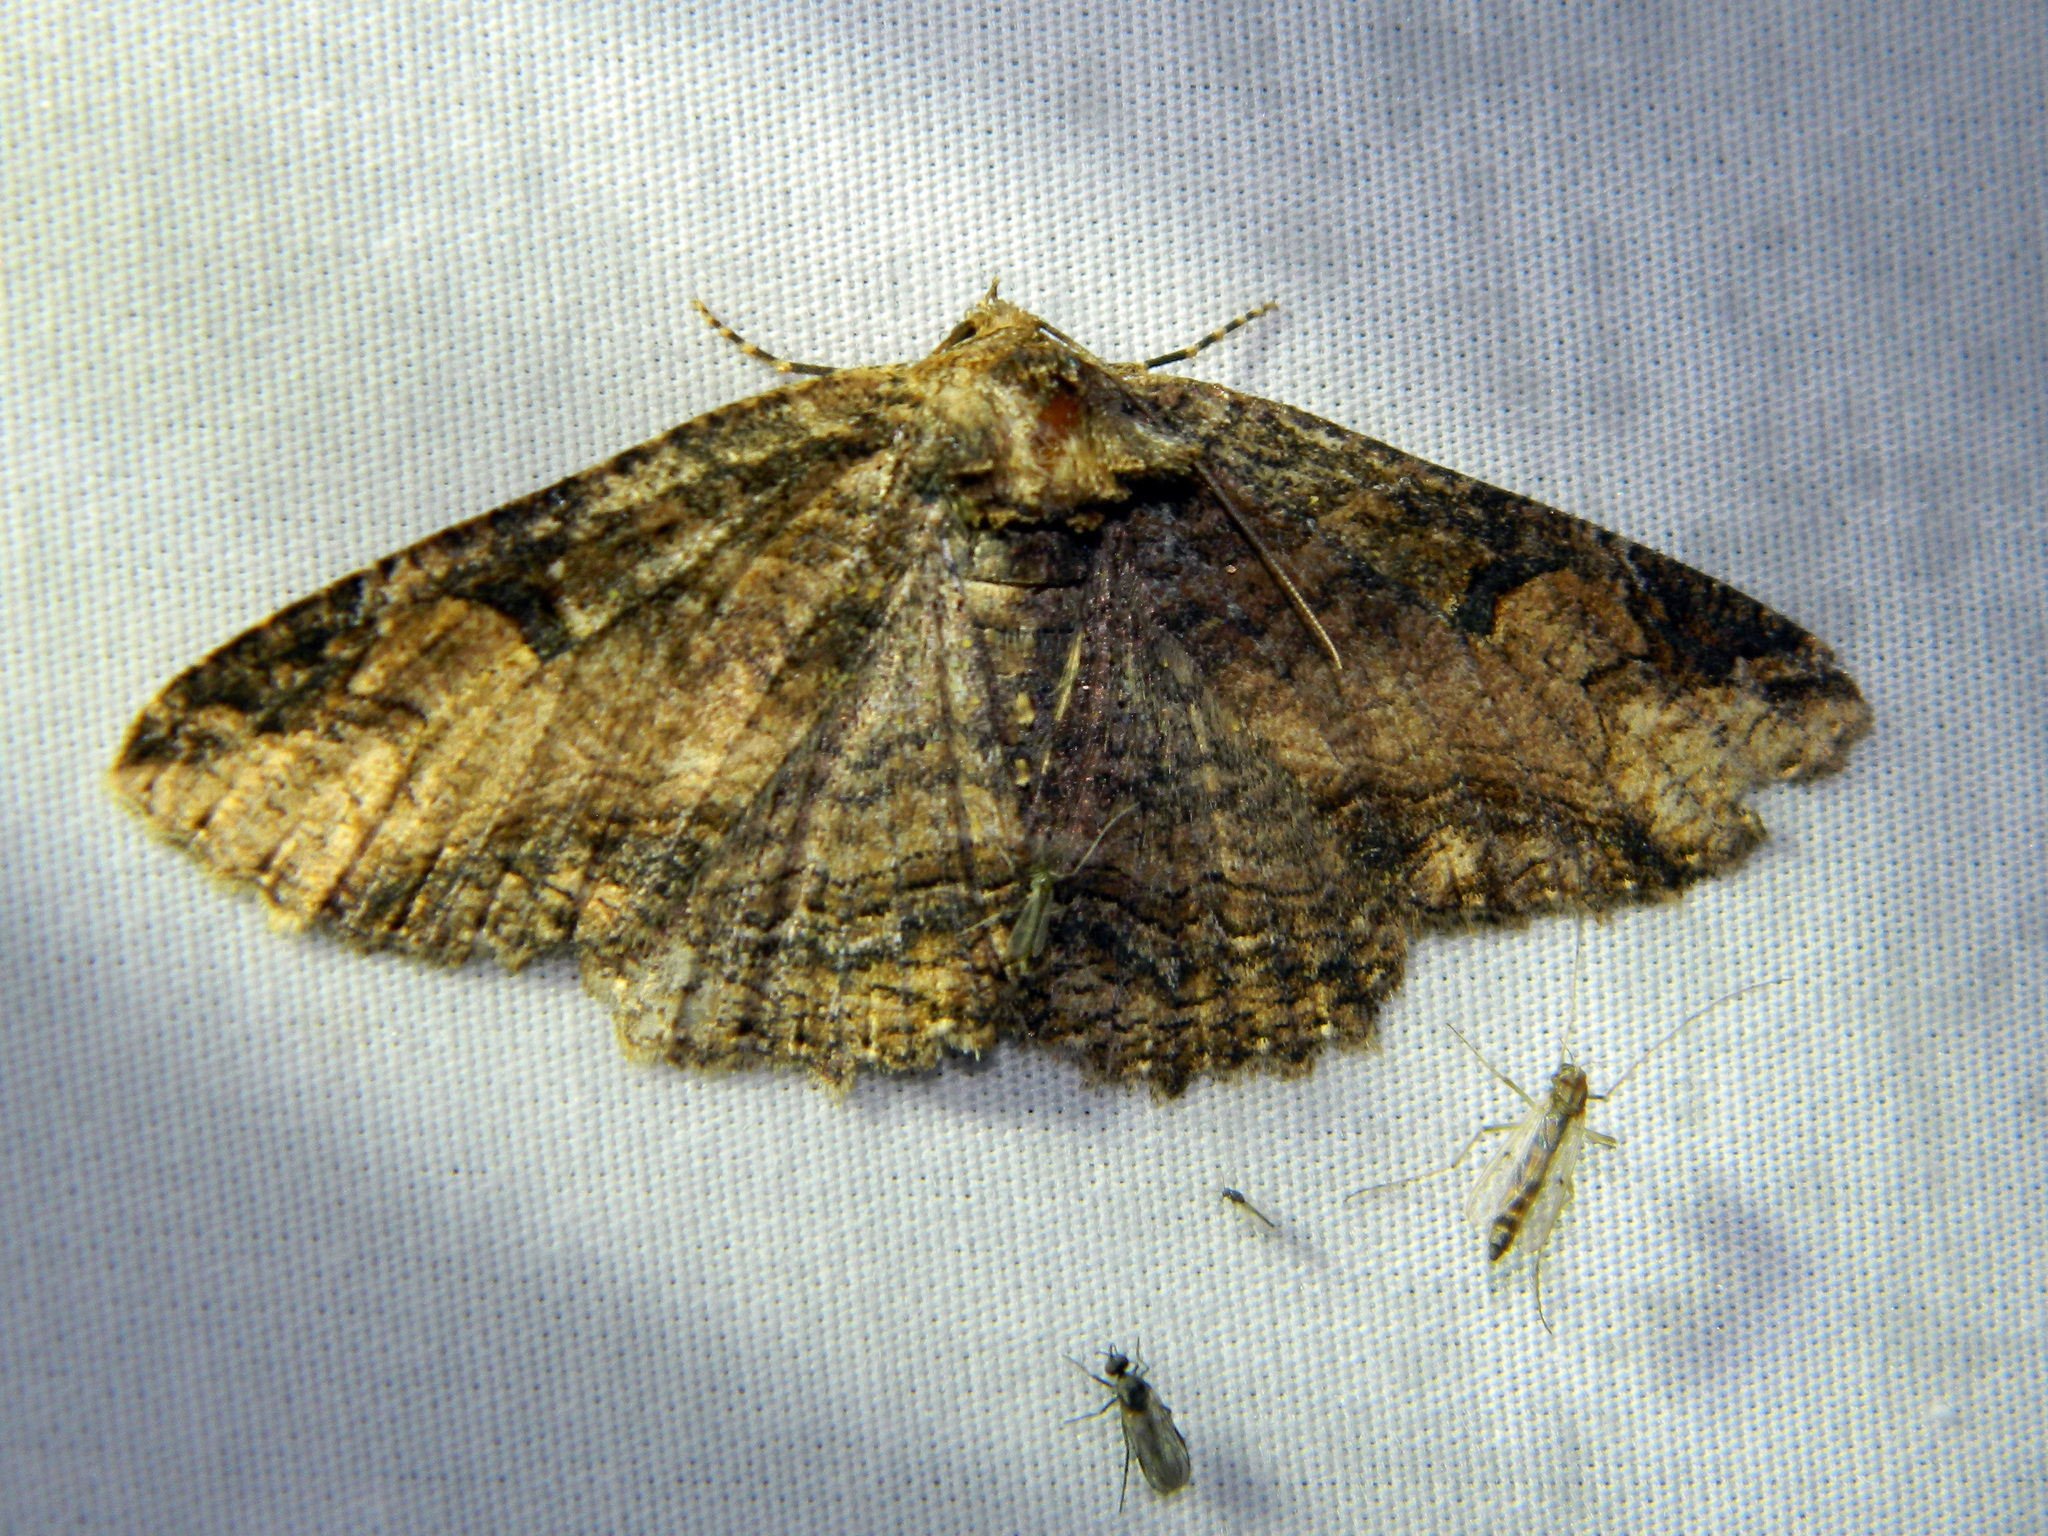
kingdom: Animalia
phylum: Arthropoda
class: Insecta
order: Lepidoptera
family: Erebidae
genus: Zale
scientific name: Zale minerea
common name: Colorful zale moth
